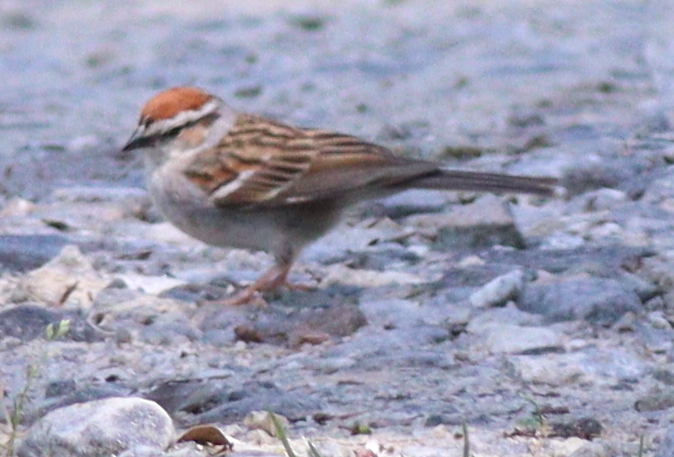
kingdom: Animalia
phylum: Chordata
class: Aves
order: Passeriformes
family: Passerellidae
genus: Spizella
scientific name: Spizella passerina
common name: Chipping sparrow
